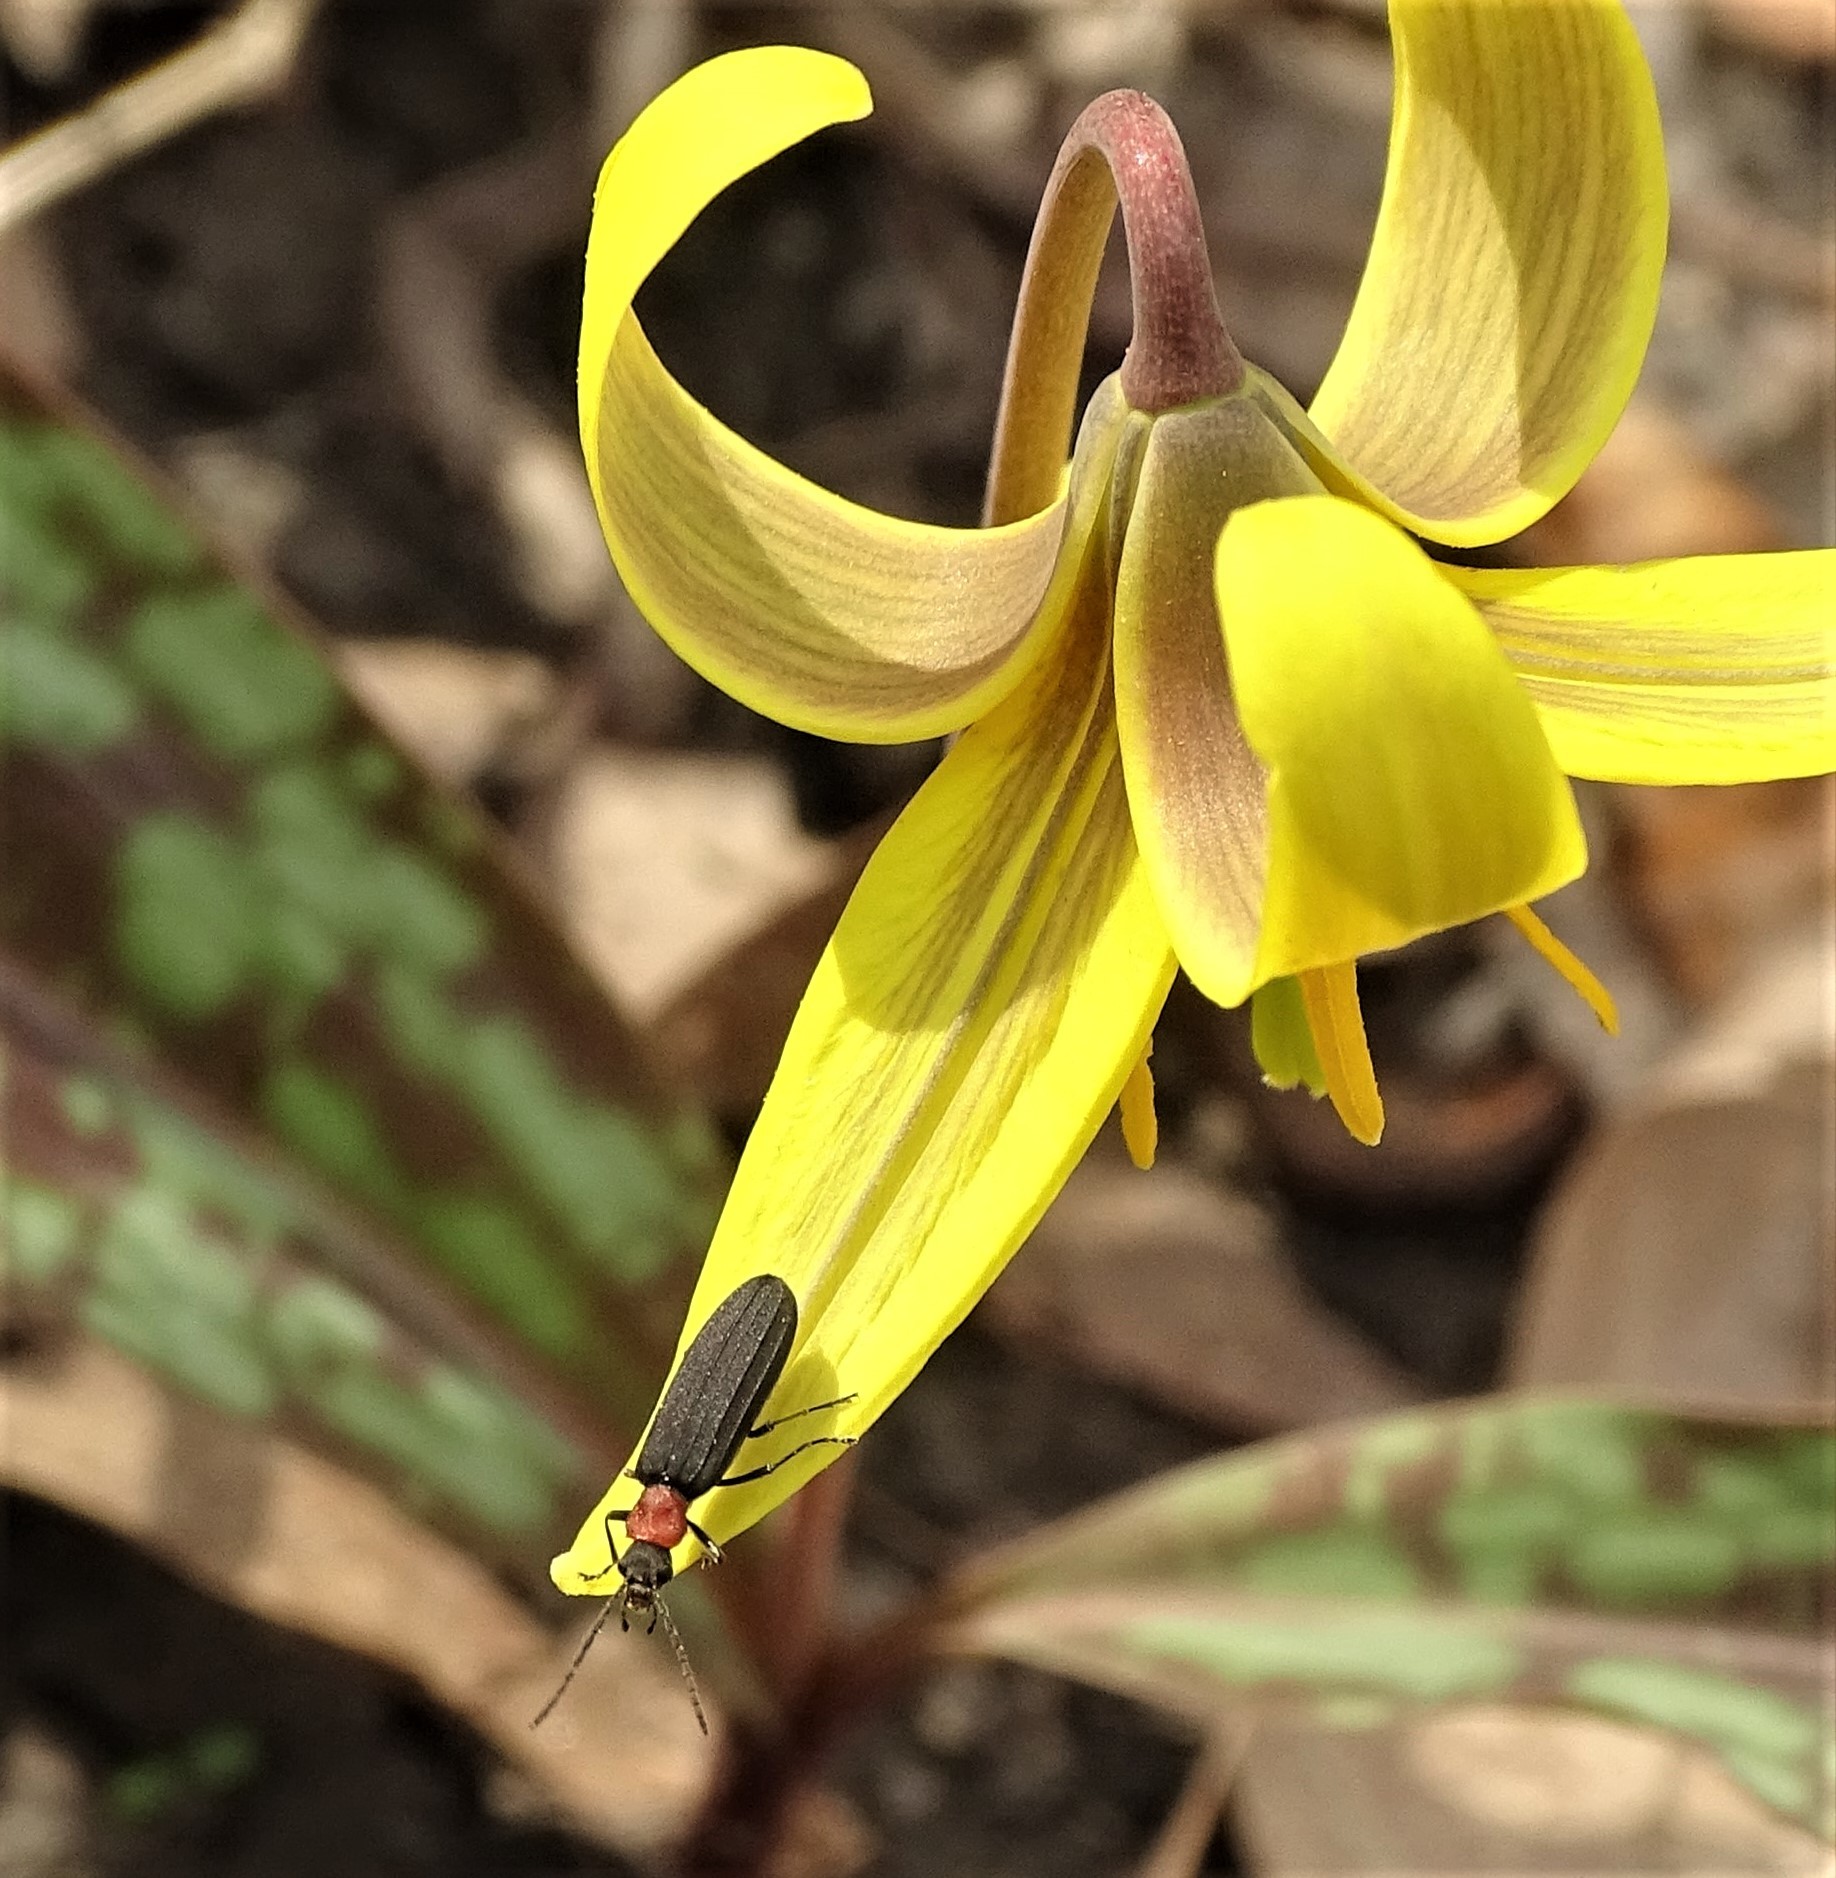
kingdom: Animalia
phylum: Arthropoda
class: Insecta
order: Coleoptera
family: Oedemeridae
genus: Ischnomera
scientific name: Ischnomera
